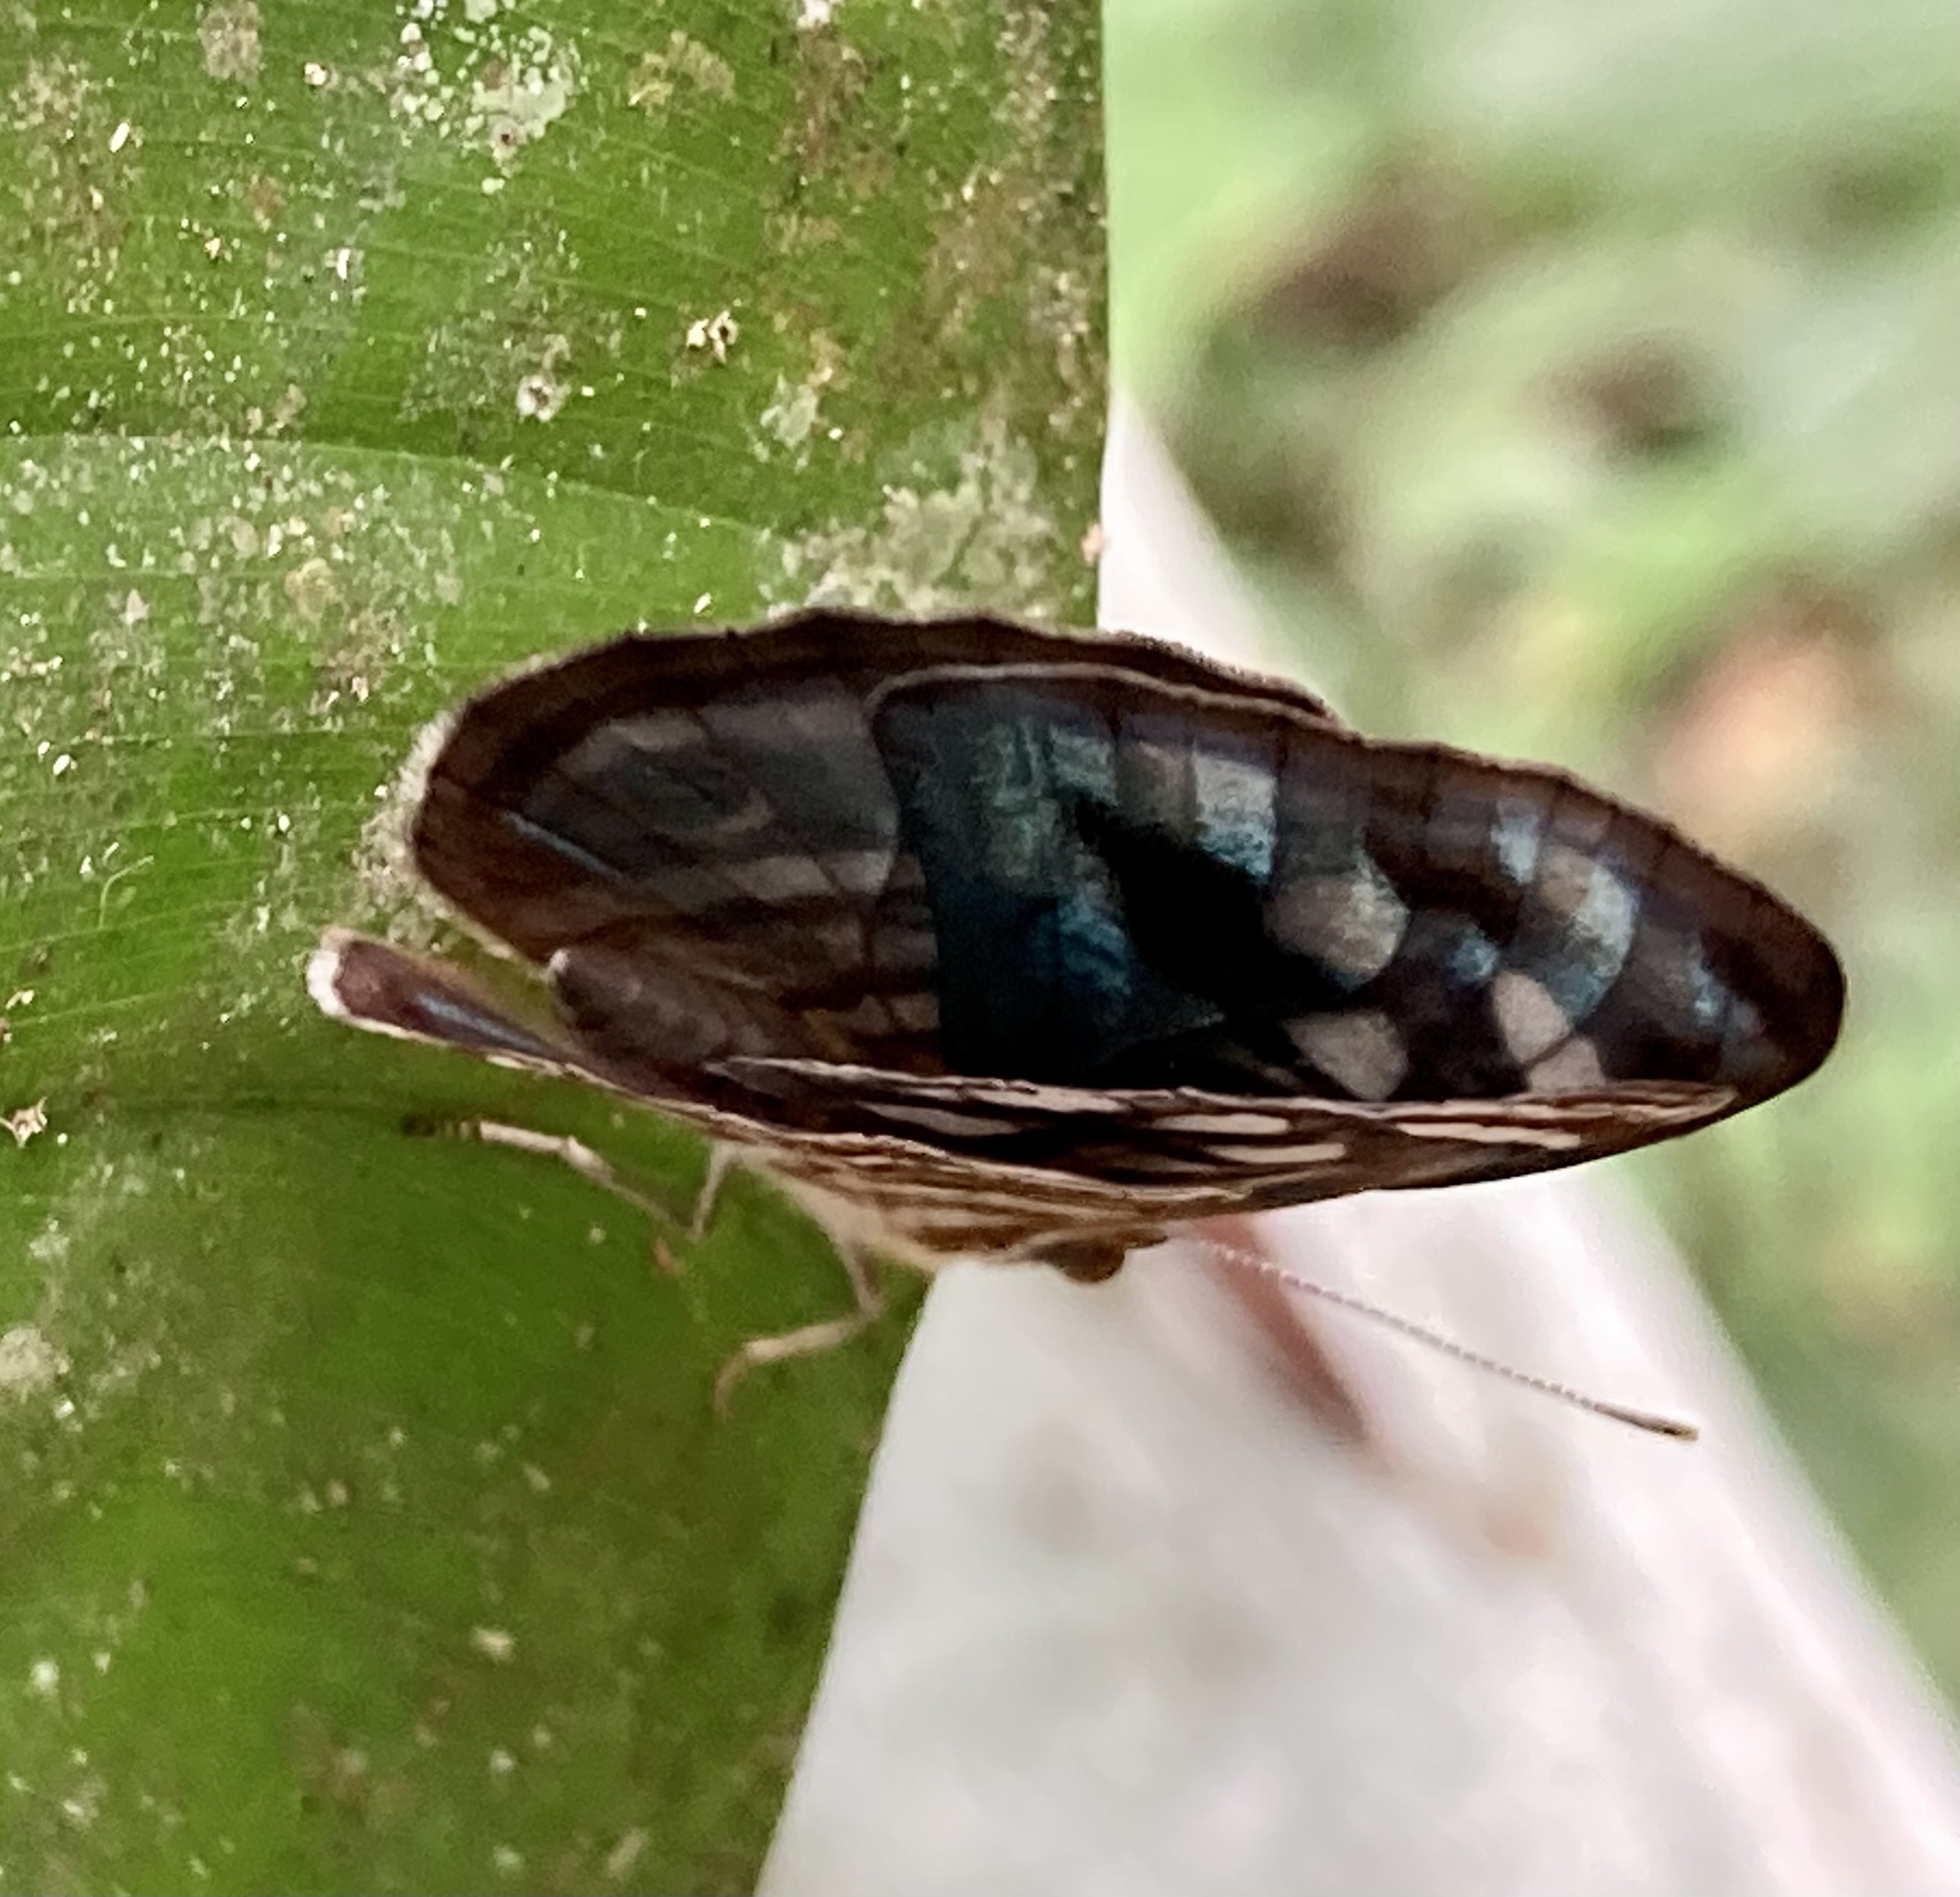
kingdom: Animalia
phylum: Arthropoda
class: Insecta
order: Lepidoptera
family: Nymphalidae
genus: Dynamine
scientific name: Dynamine mylitta
